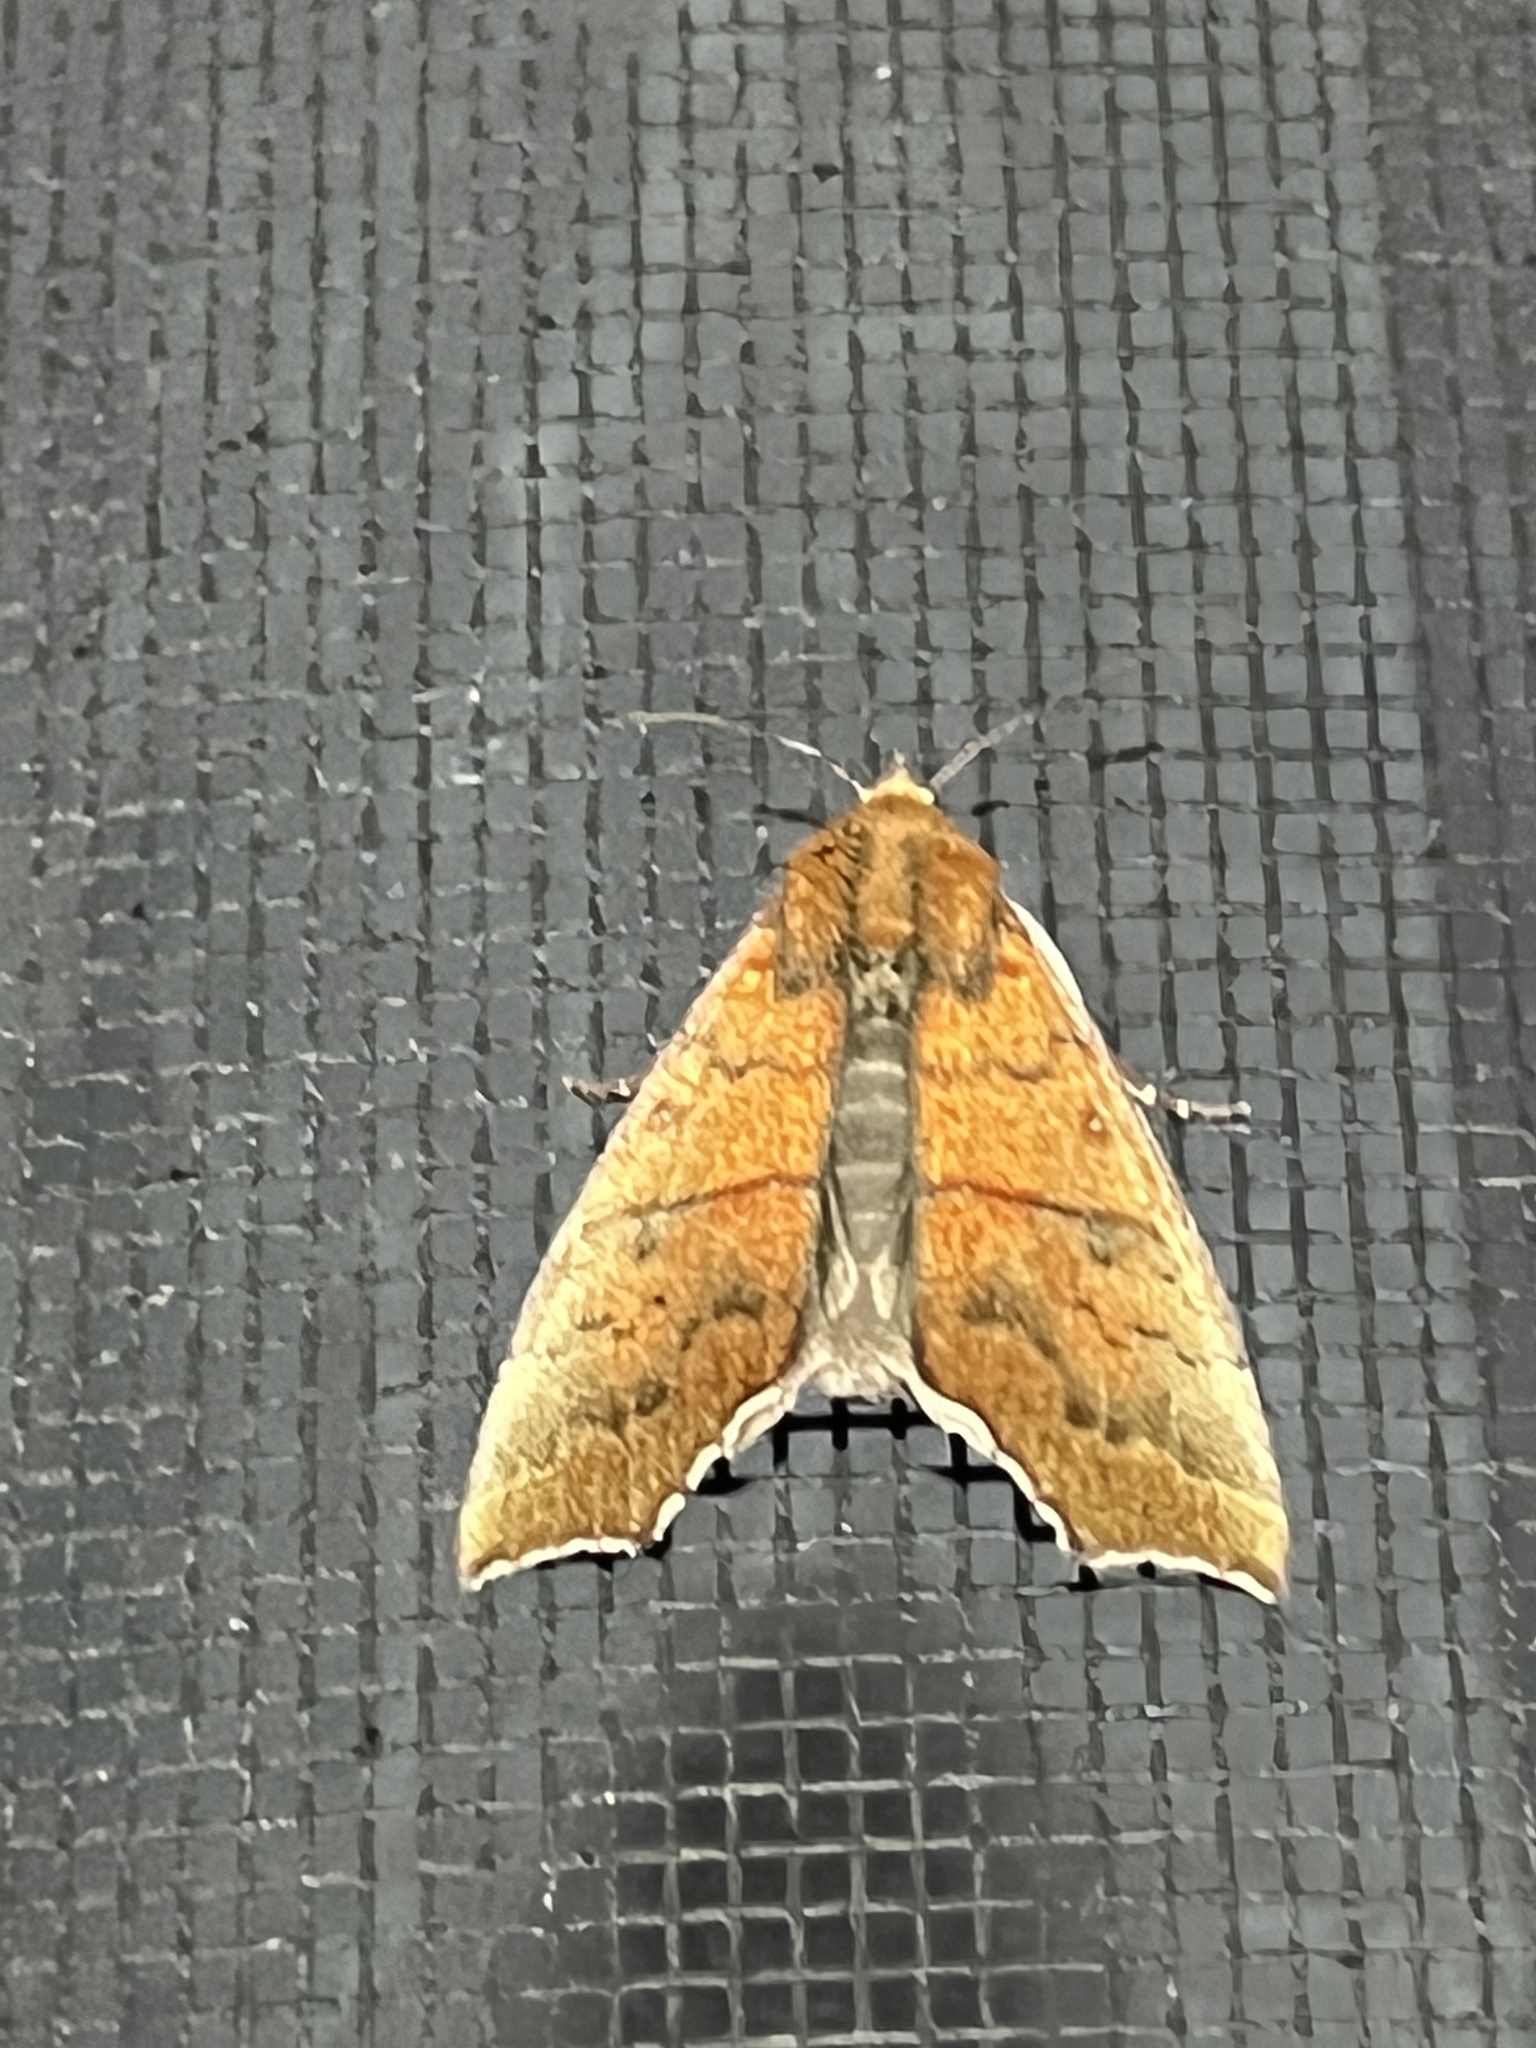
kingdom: Animalia
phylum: Arthropoda
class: Insecta
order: Lepidoptera
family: Erebidae
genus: Rusicada
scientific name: Rusicada privata
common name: Hibiscus leaf caterpillar moth
